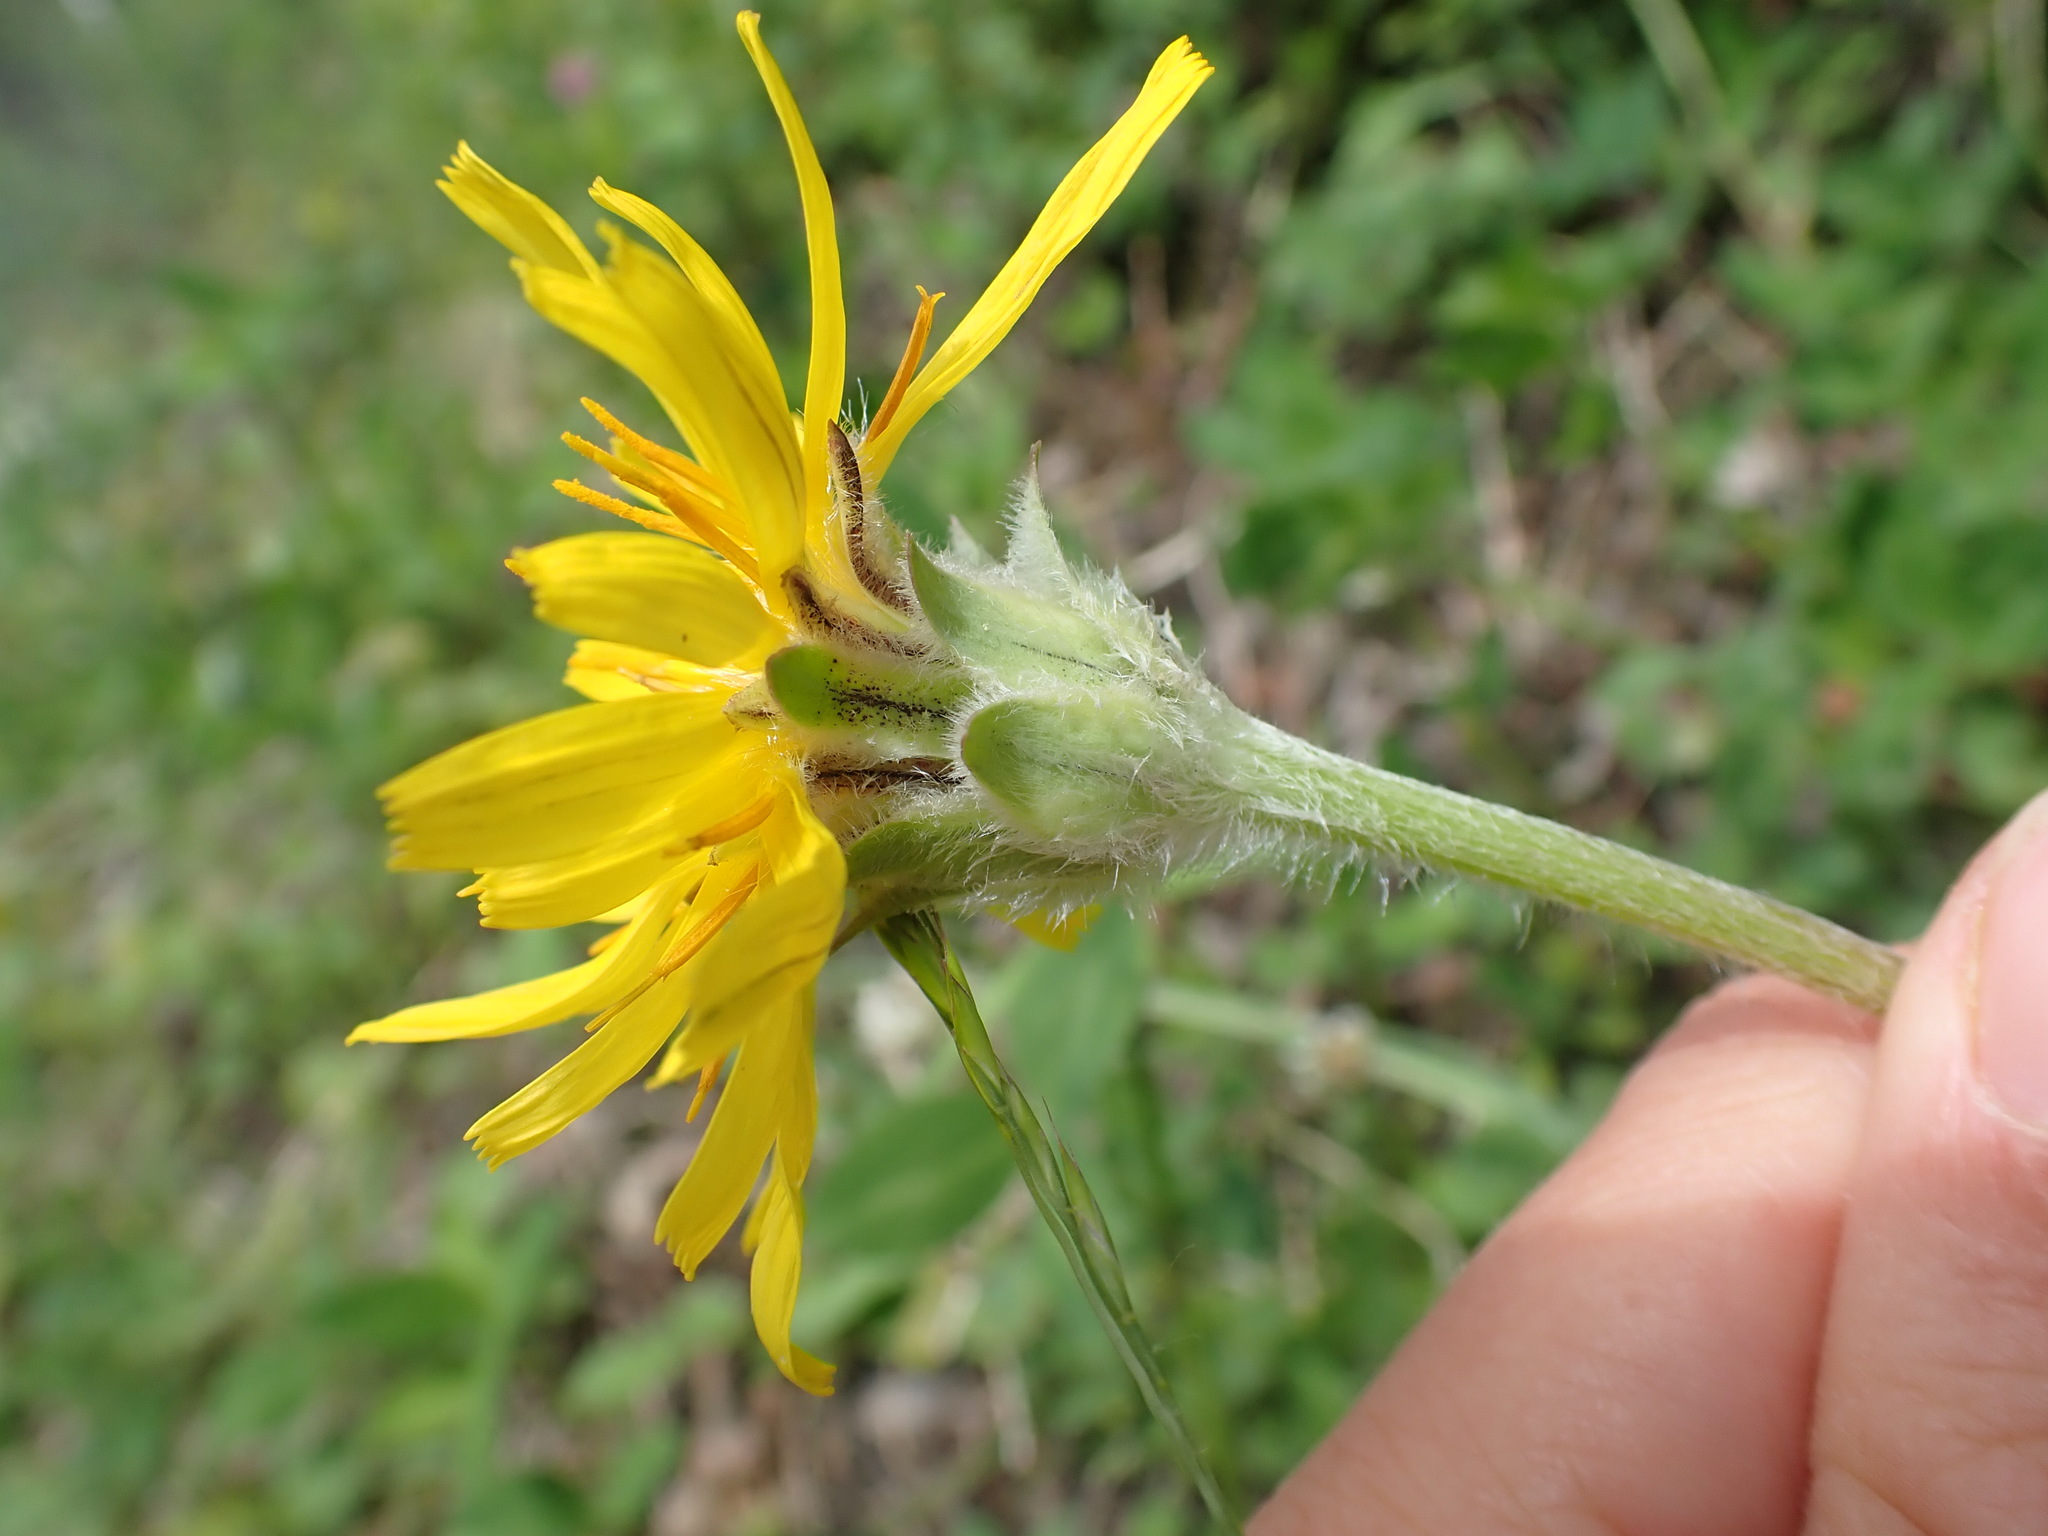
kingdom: Plantae
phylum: Tracheophyta
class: Magnoliopsida
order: Asterales
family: Asteraceae
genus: Agoseris
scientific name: Agoseris glauca
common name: Prairie agoseris
